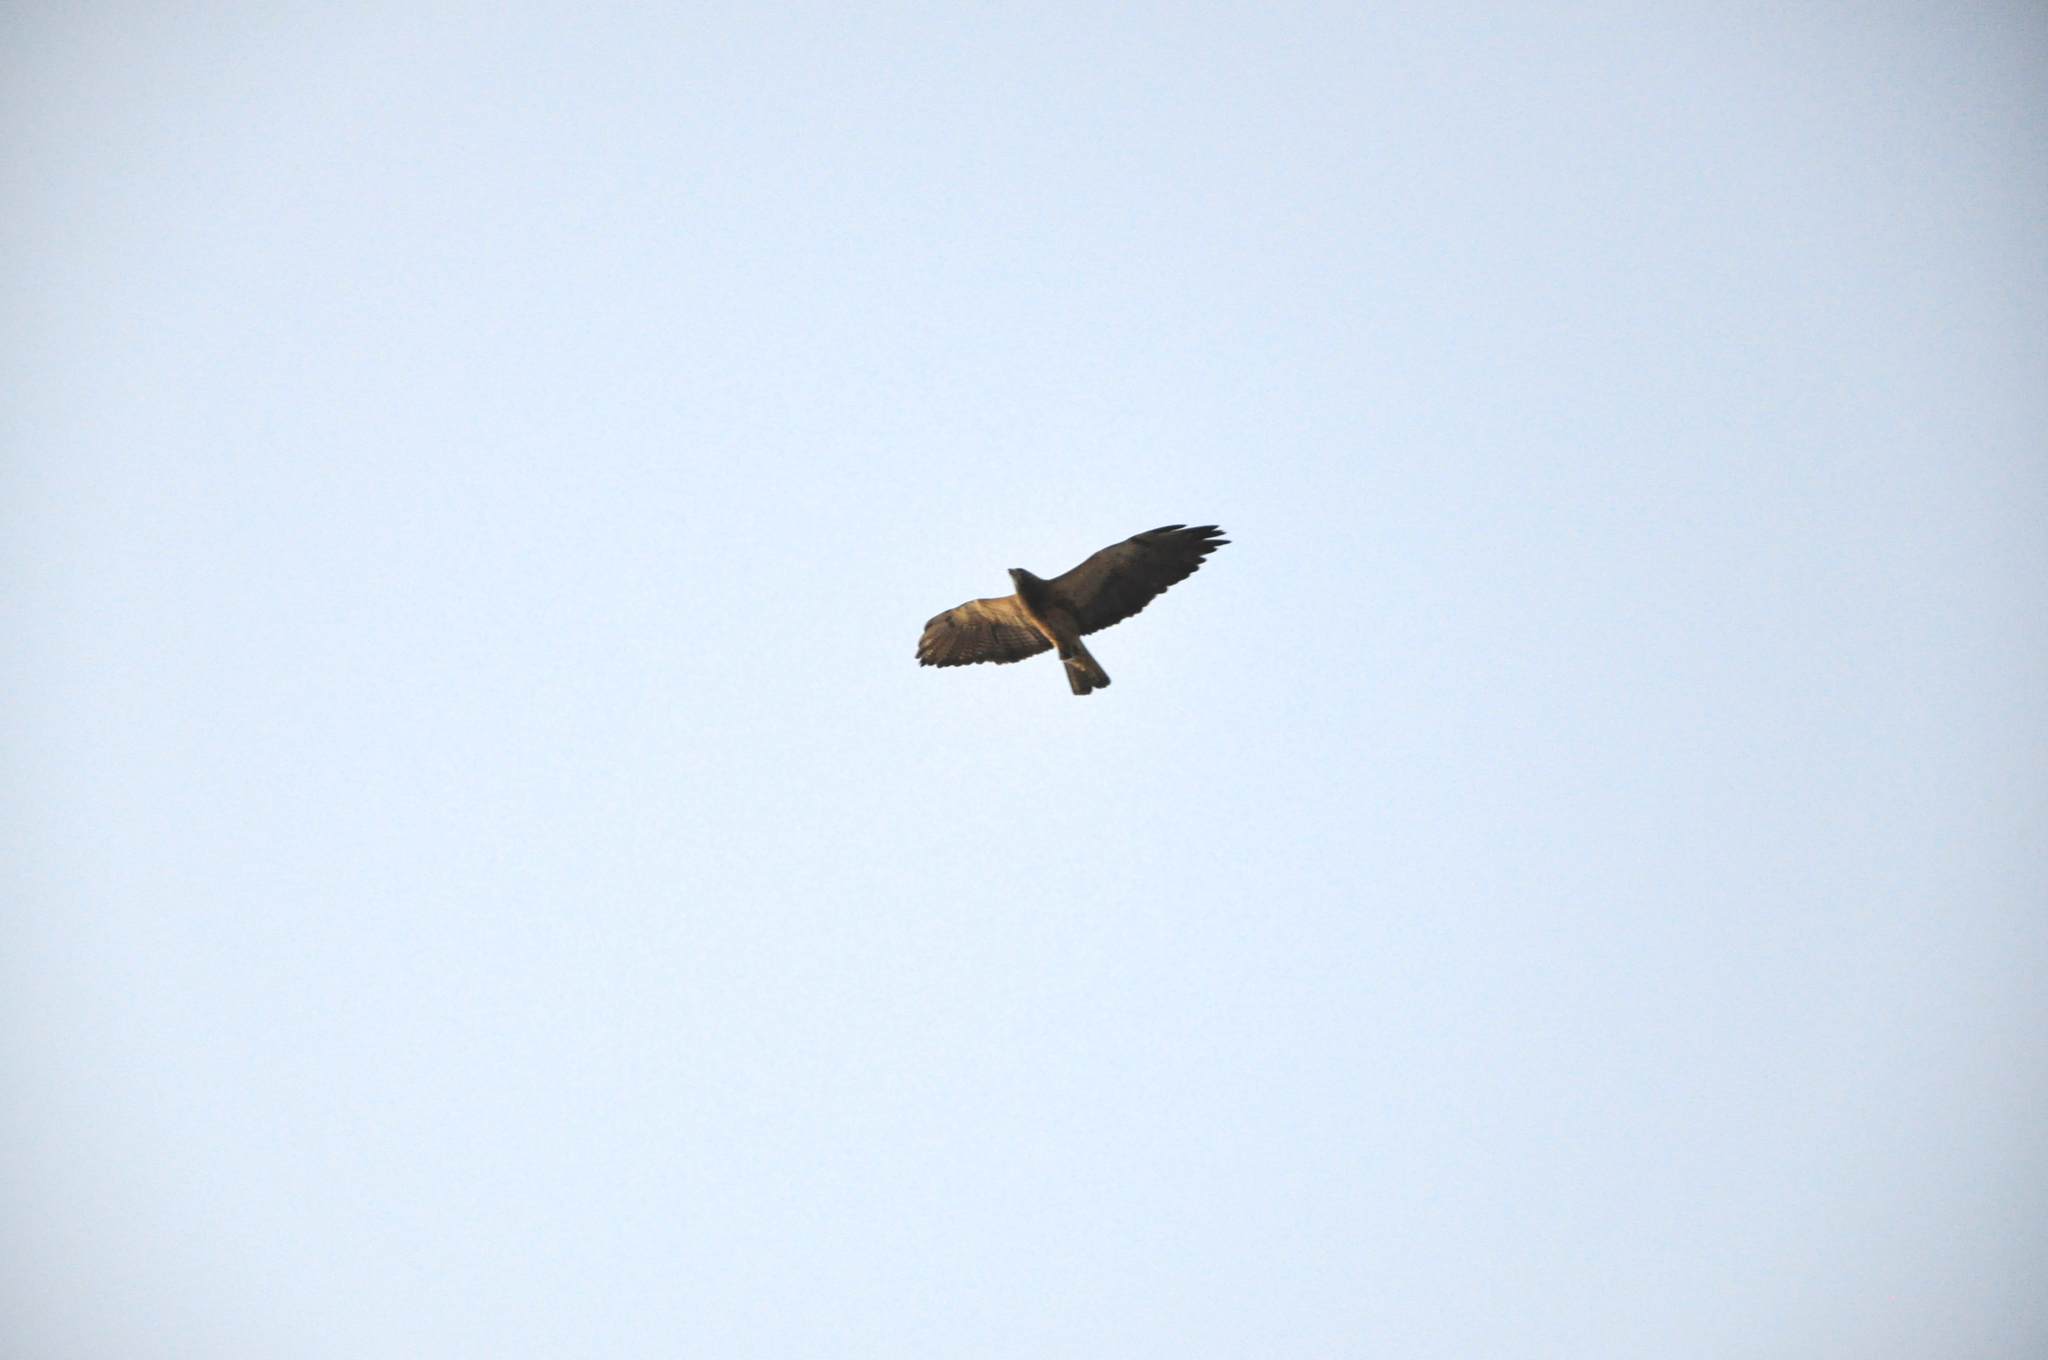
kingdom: Animalia
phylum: Chordata
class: Aves
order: Accipitriformes
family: Accipitridae
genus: Buteo
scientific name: Buteo swainsoni
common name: Swainson's hawk
